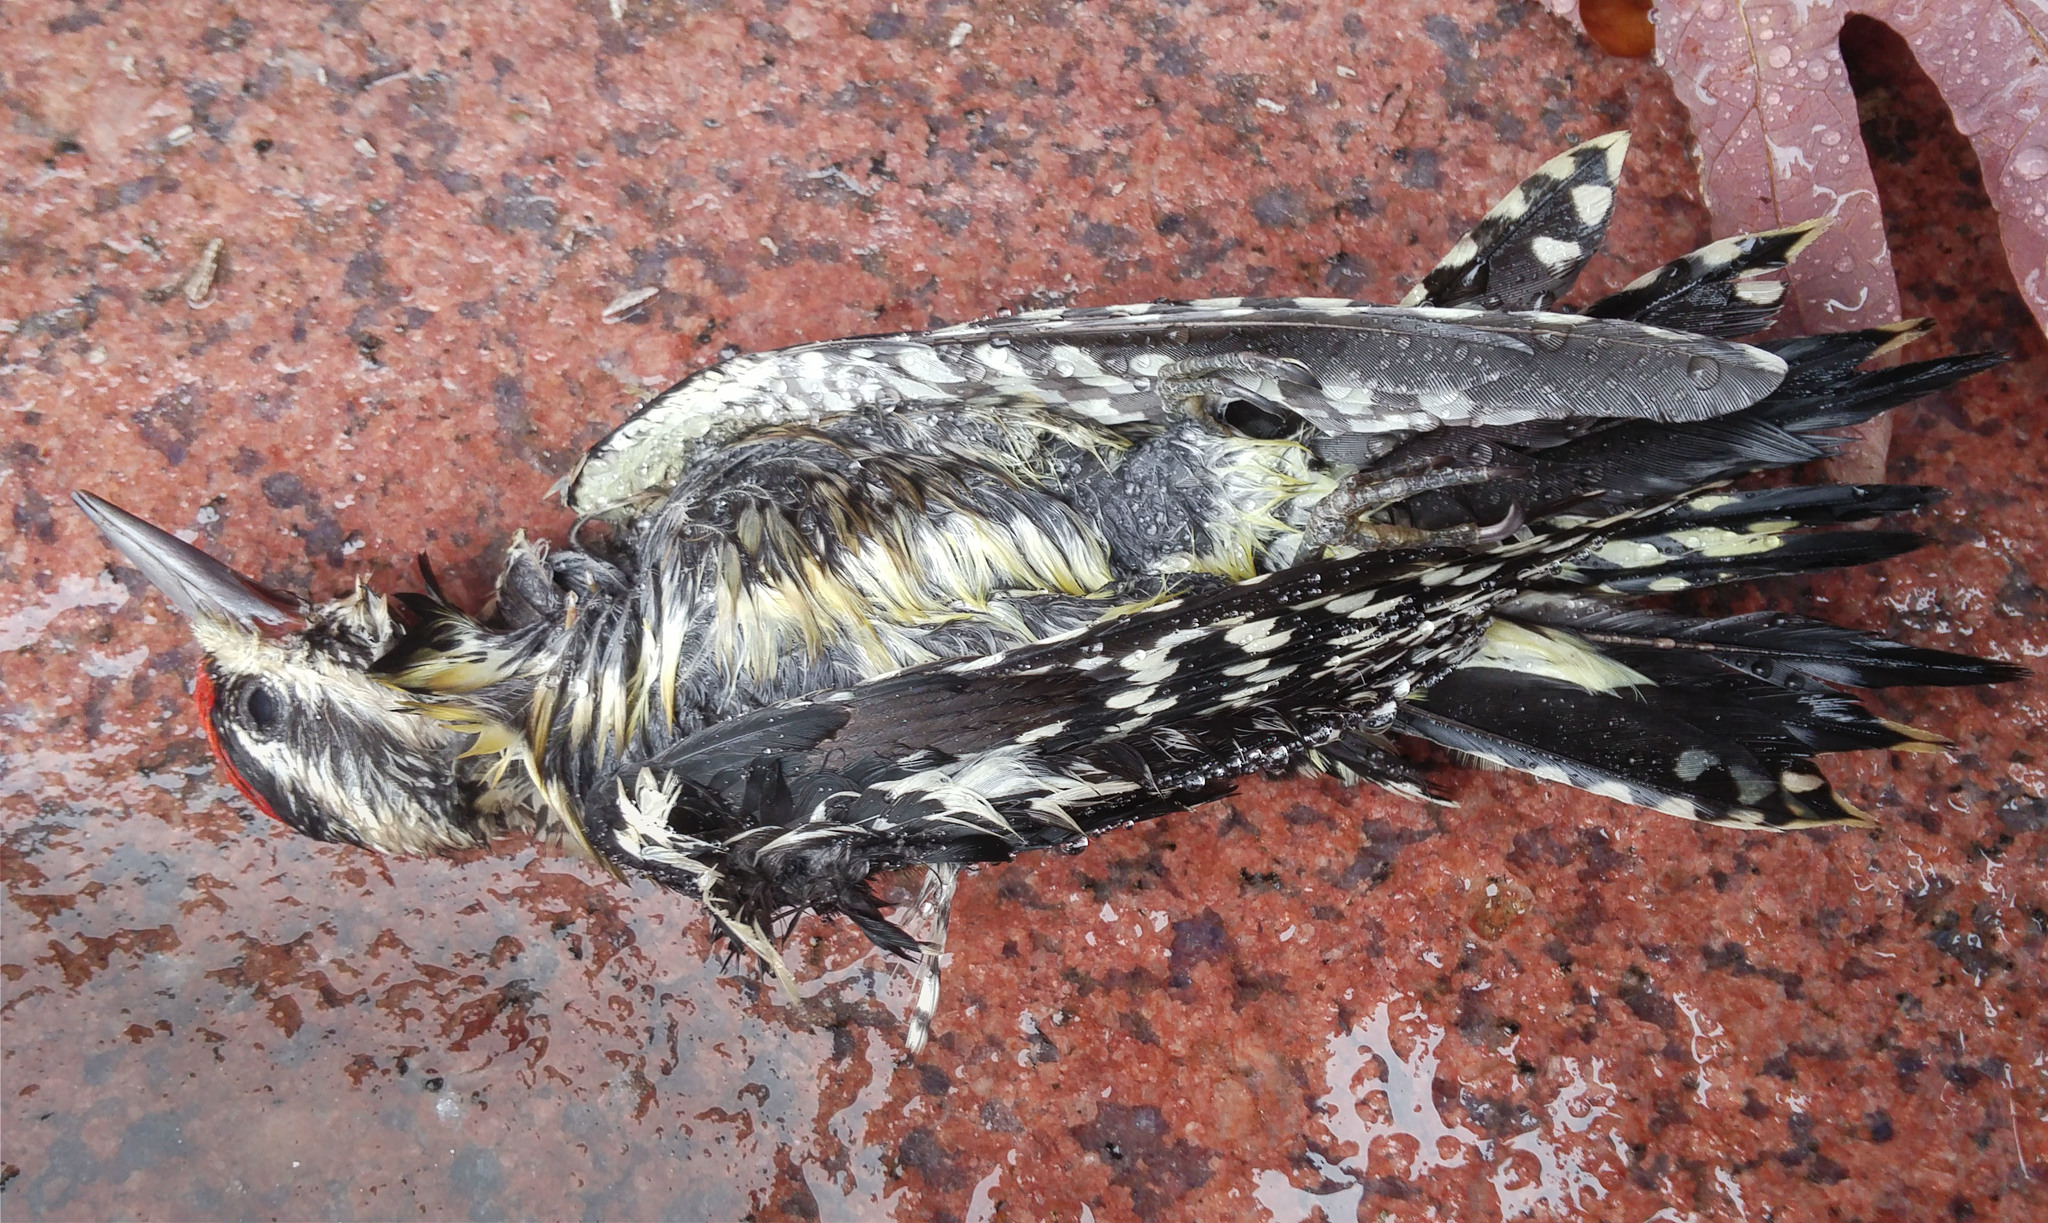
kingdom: Animalia
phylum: Chordata
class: Aves
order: Piciformes
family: Picidae
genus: Sphyrapicus
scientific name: Sphyrapicus varius
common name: Yellow-bellied sapsucker
